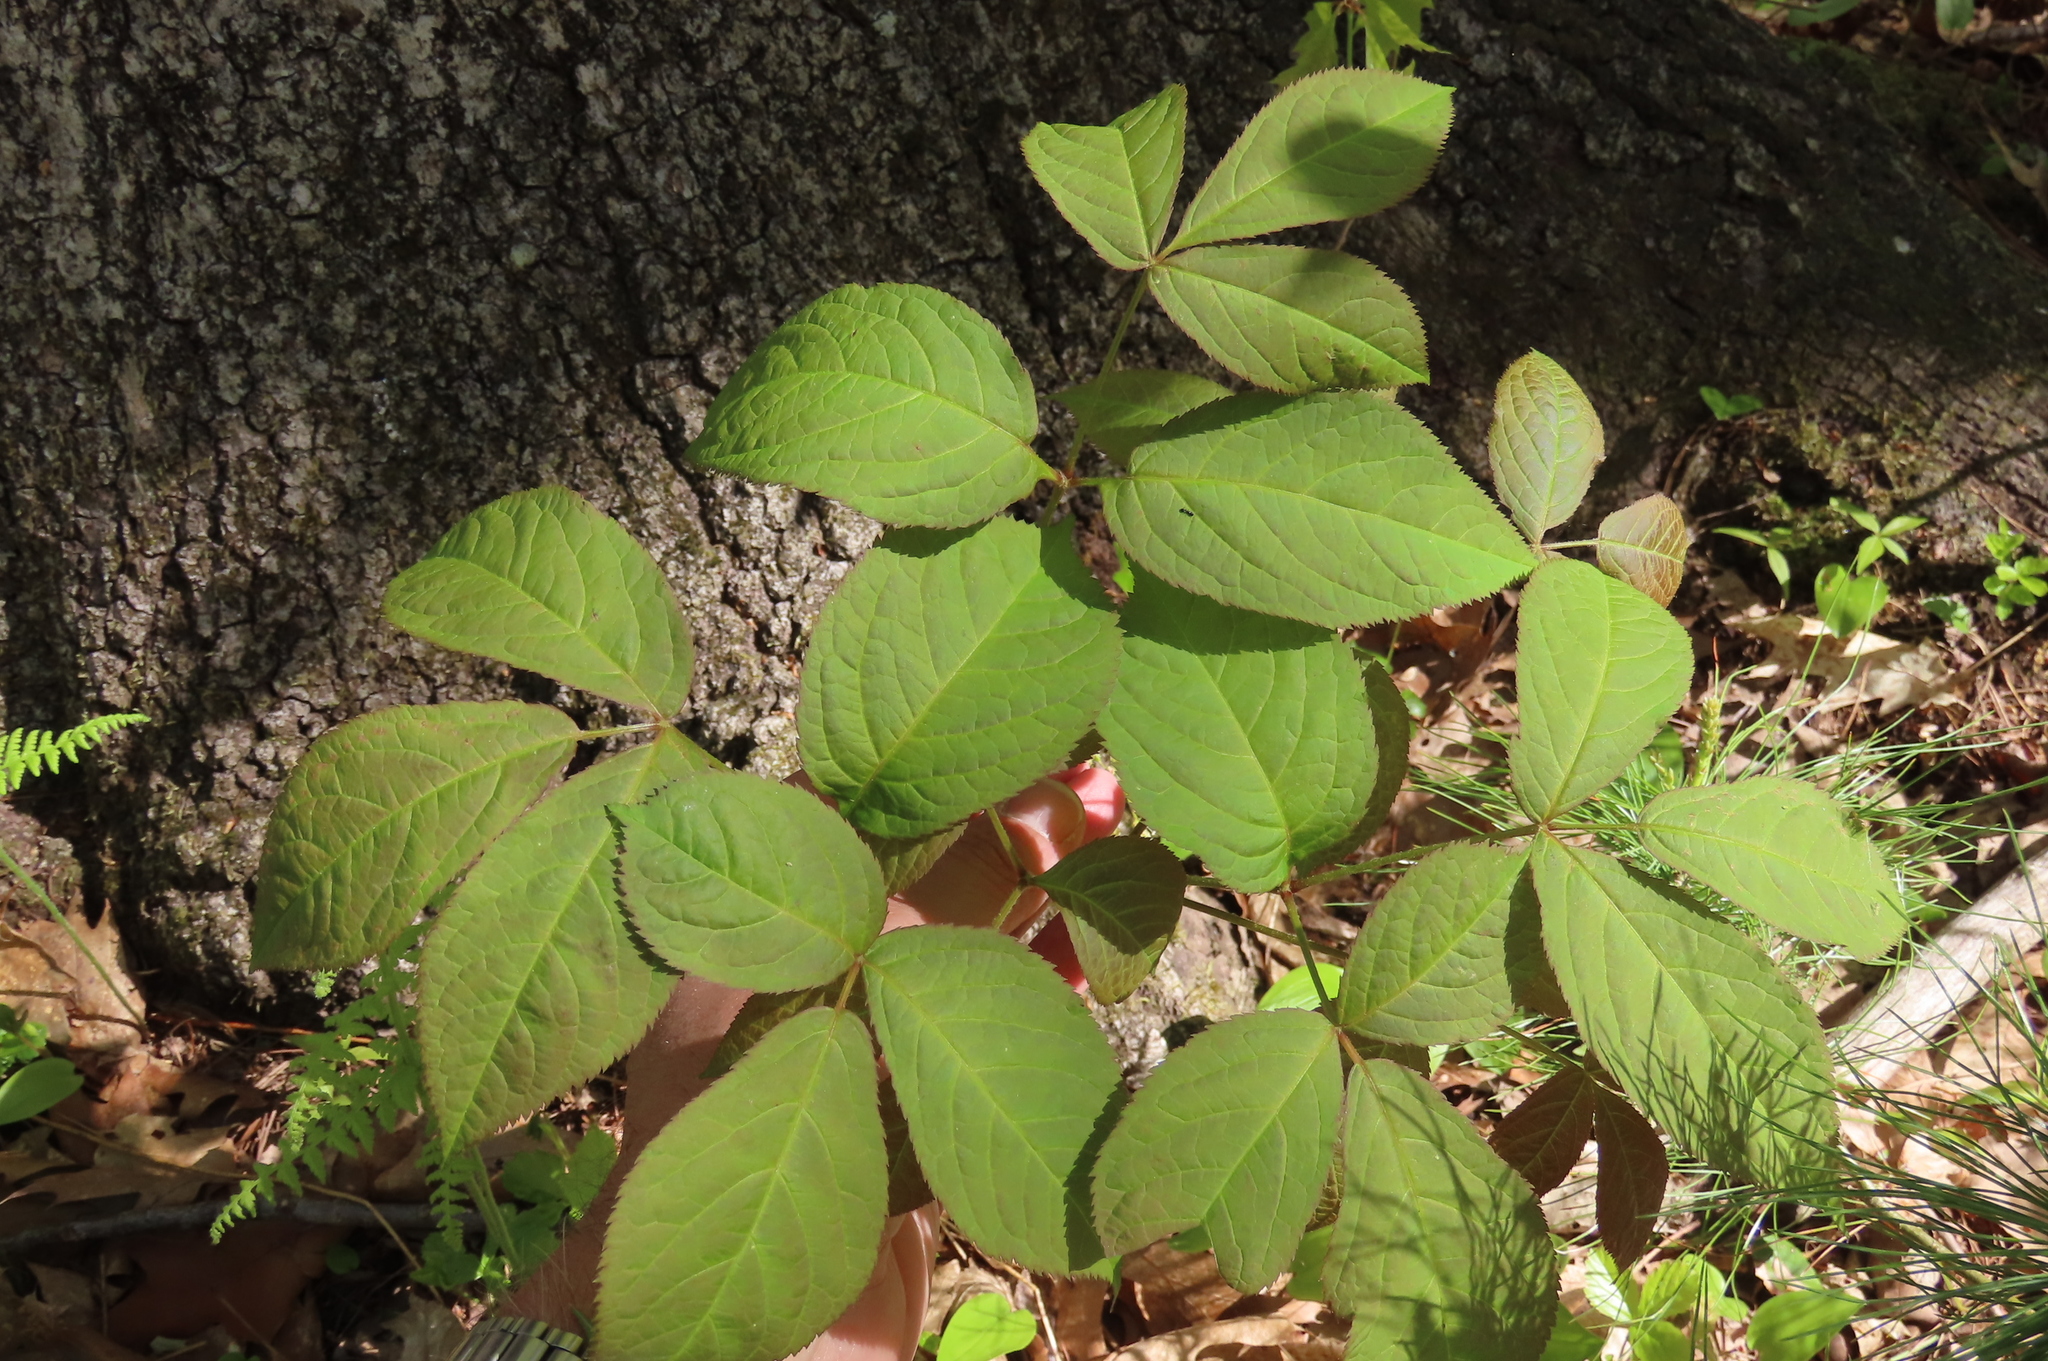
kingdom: Plantae
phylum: Tracheophyta
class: Magnoliopsida
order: Apiales
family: Araliaceae
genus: Aralia
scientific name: Aralia nudicaulis
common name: Wild sarsaparilla
